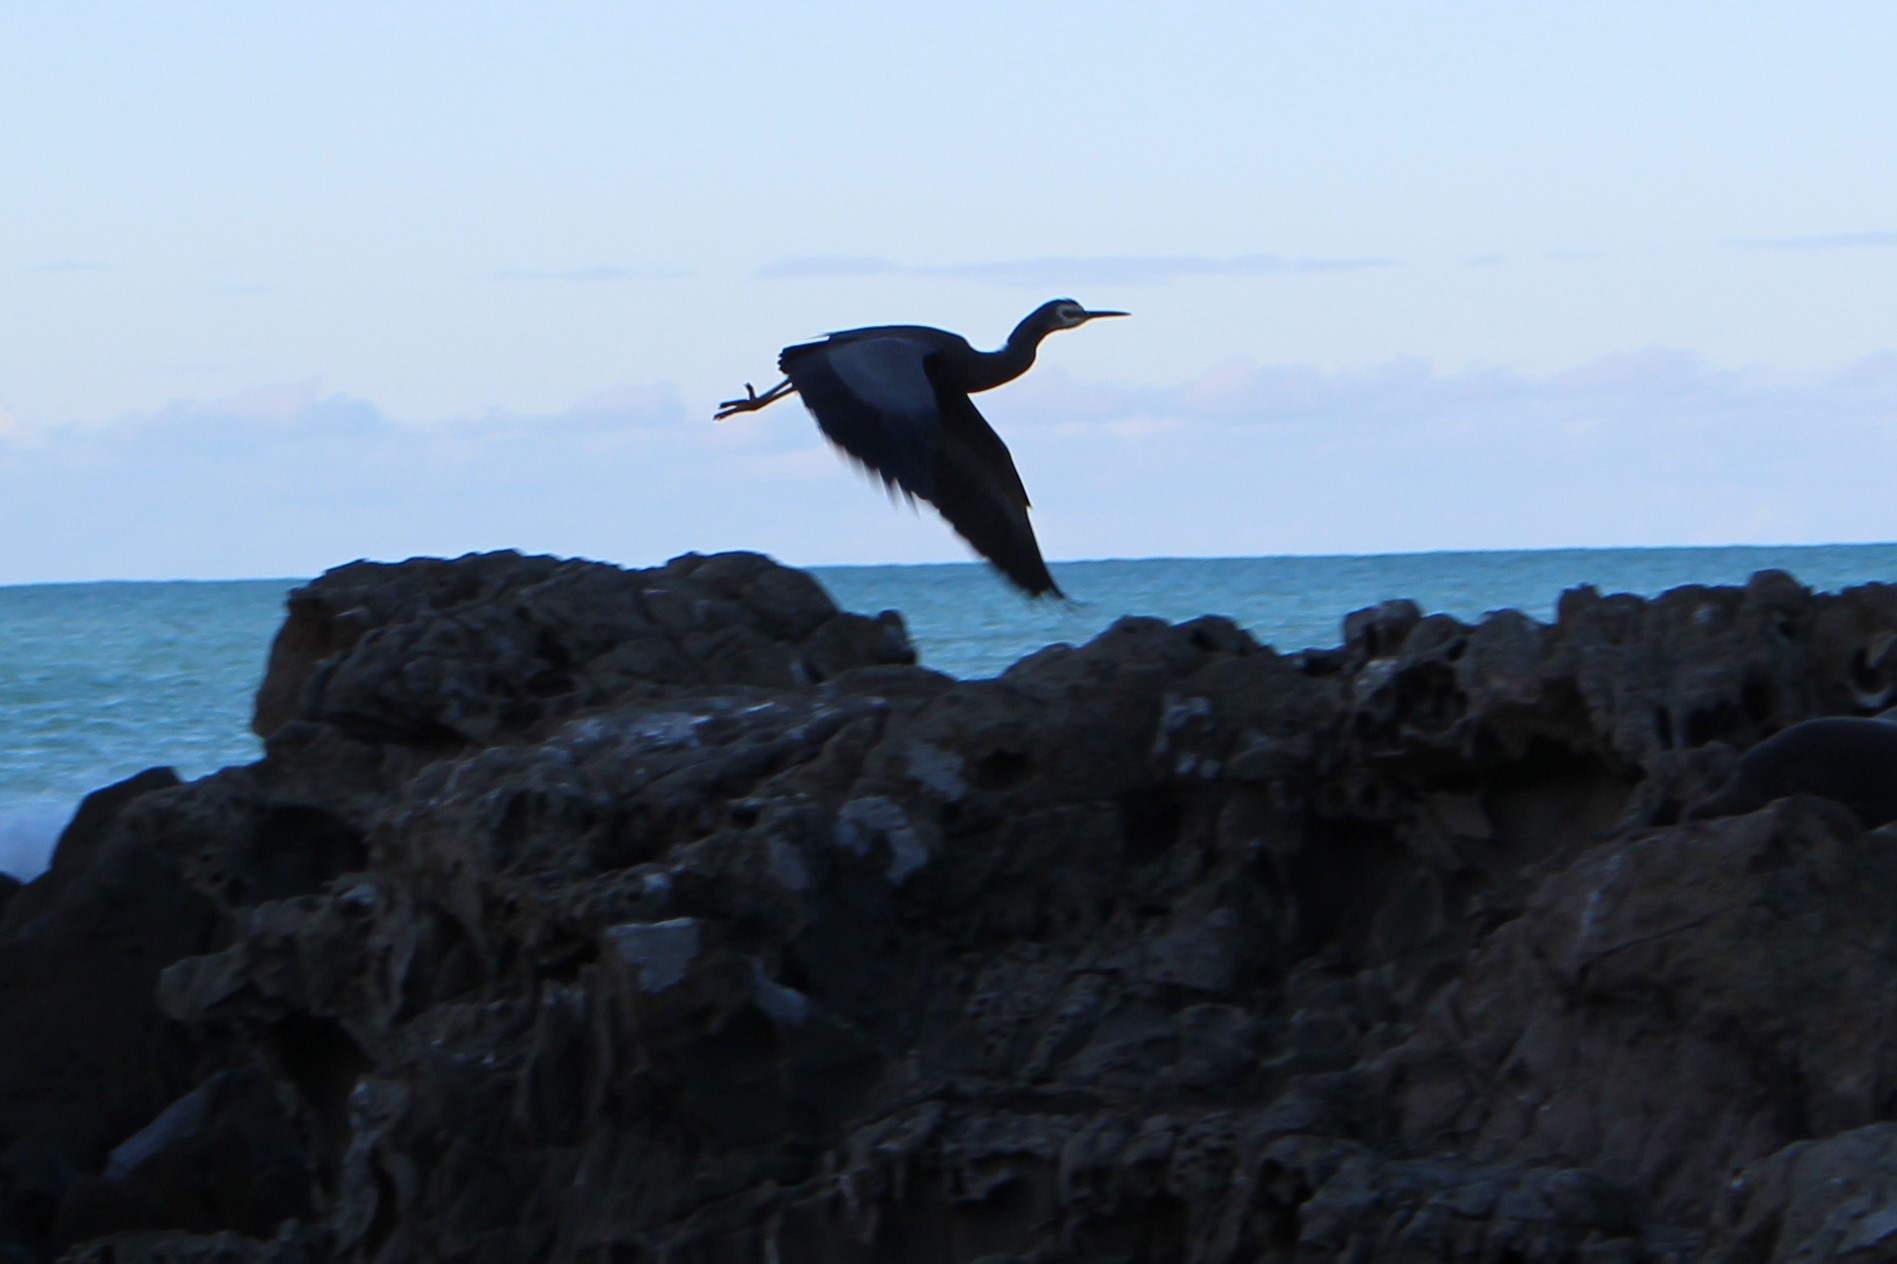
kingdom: Animalia
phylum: Chordata
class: Aves
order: Pelecaniformes
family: Ardeidae
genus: Egretta
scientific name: Egretta novaehollandiae
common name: White-faced heron
